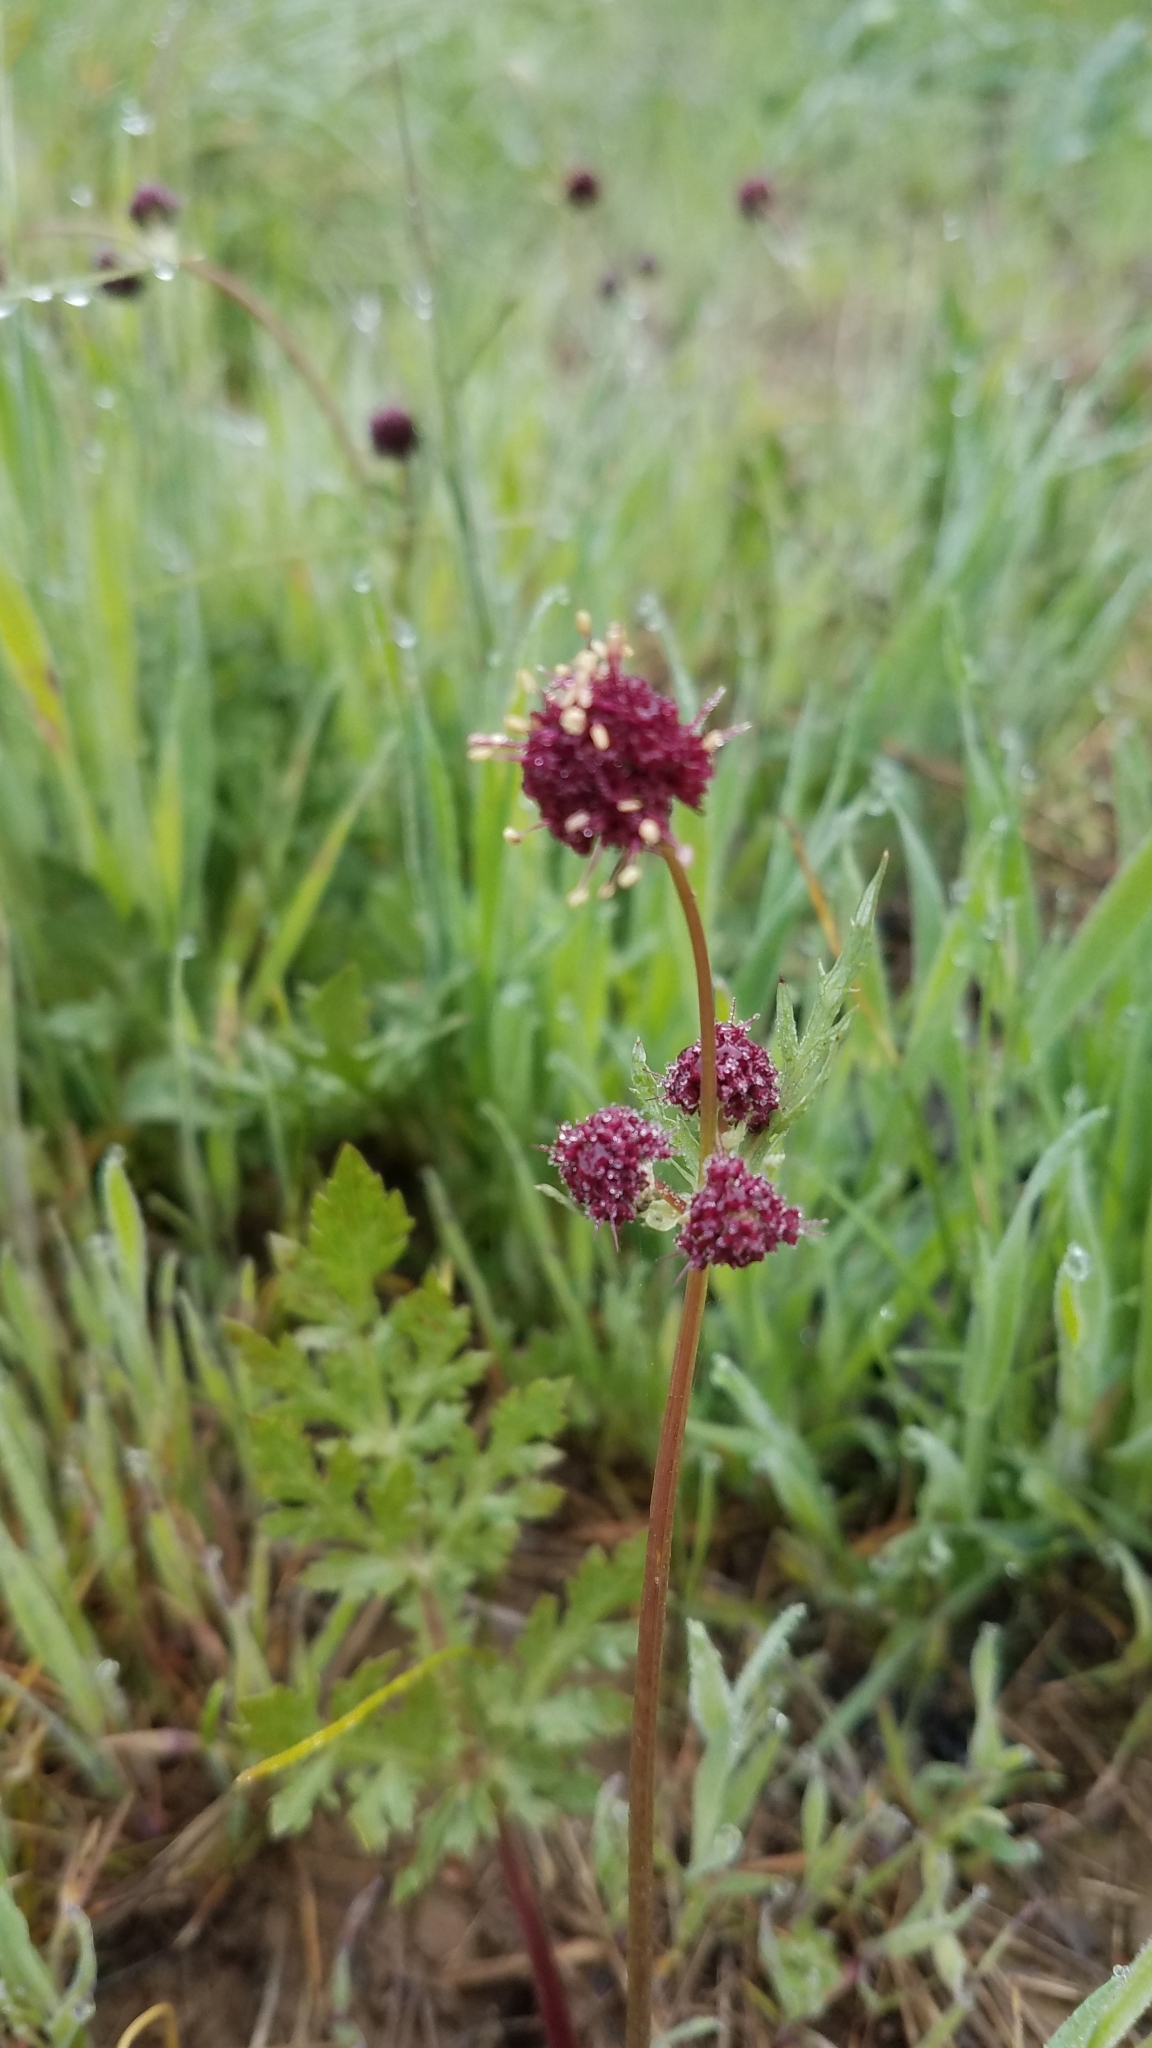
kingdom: Plantae
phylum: Tracheophyta
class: Magnoliopsida
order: Apiales
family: Apiaceae
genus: Sanicula
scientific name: Sanicula bipinnatifida
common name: Shoe-buttons
